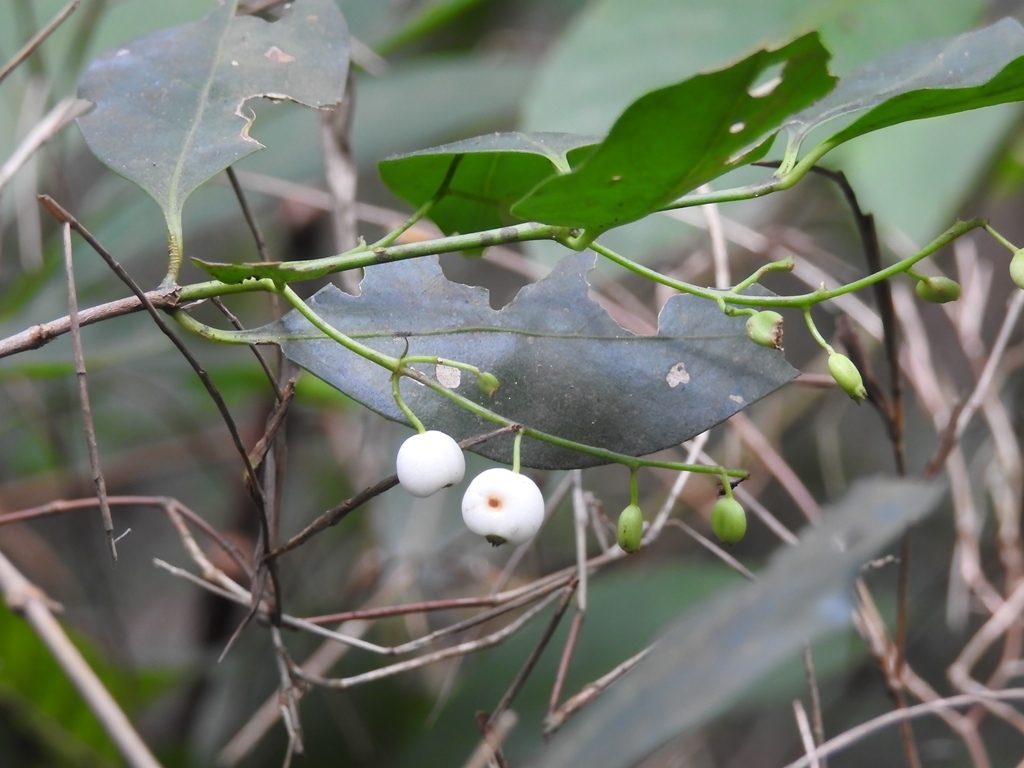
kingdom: Plantae
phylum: Tracheophyta
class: Magnoliopsida
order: Gentianales
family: Rubiaceae
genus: Chiococca
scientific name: Chiococca alba
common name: Snowberry
